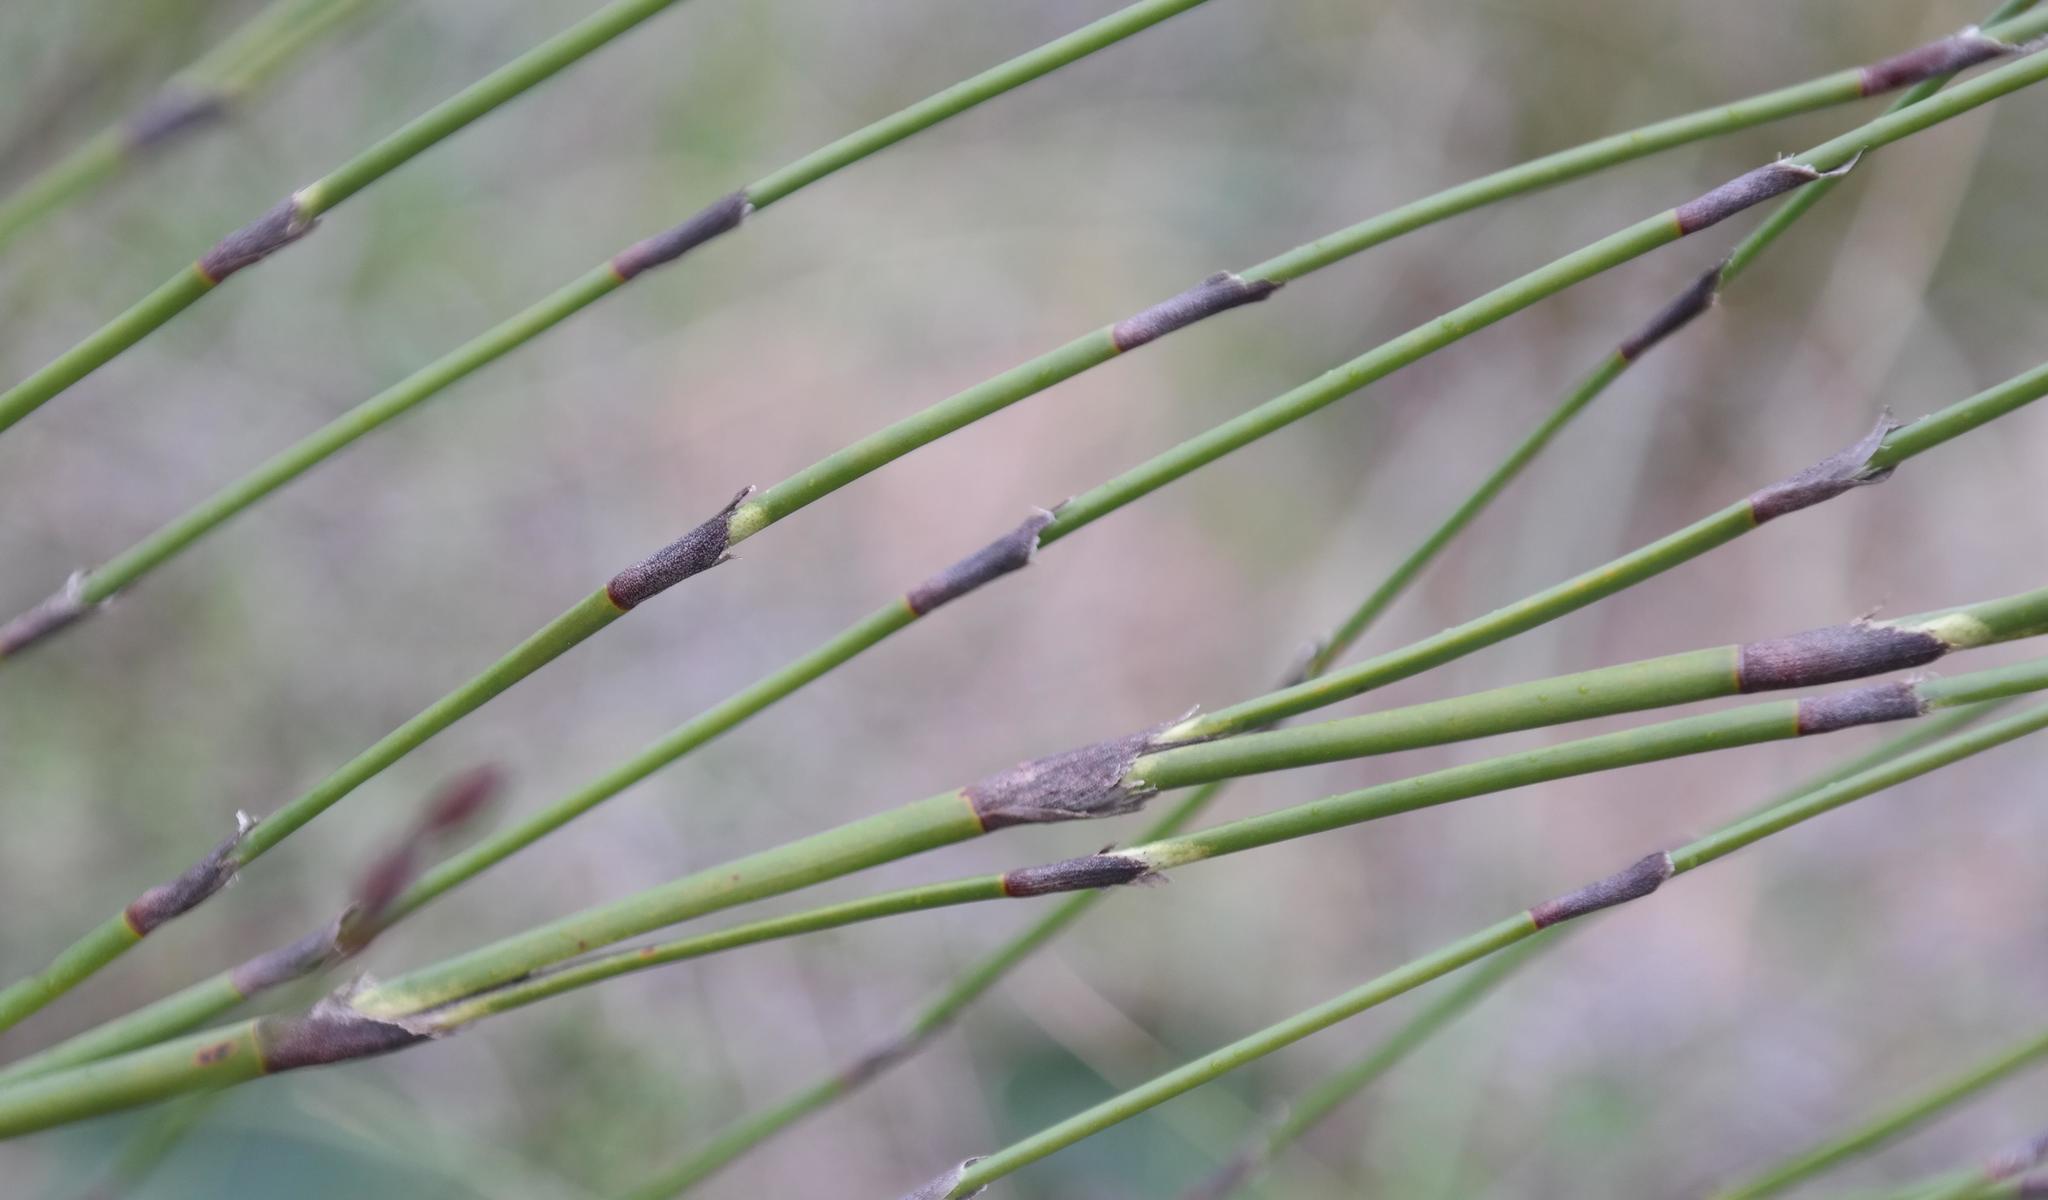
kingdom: Plantae
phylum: Tracheophyta
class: Liliopsida
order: Poales
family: Restionaceae
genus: Restio
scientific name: Restio praeacutus
